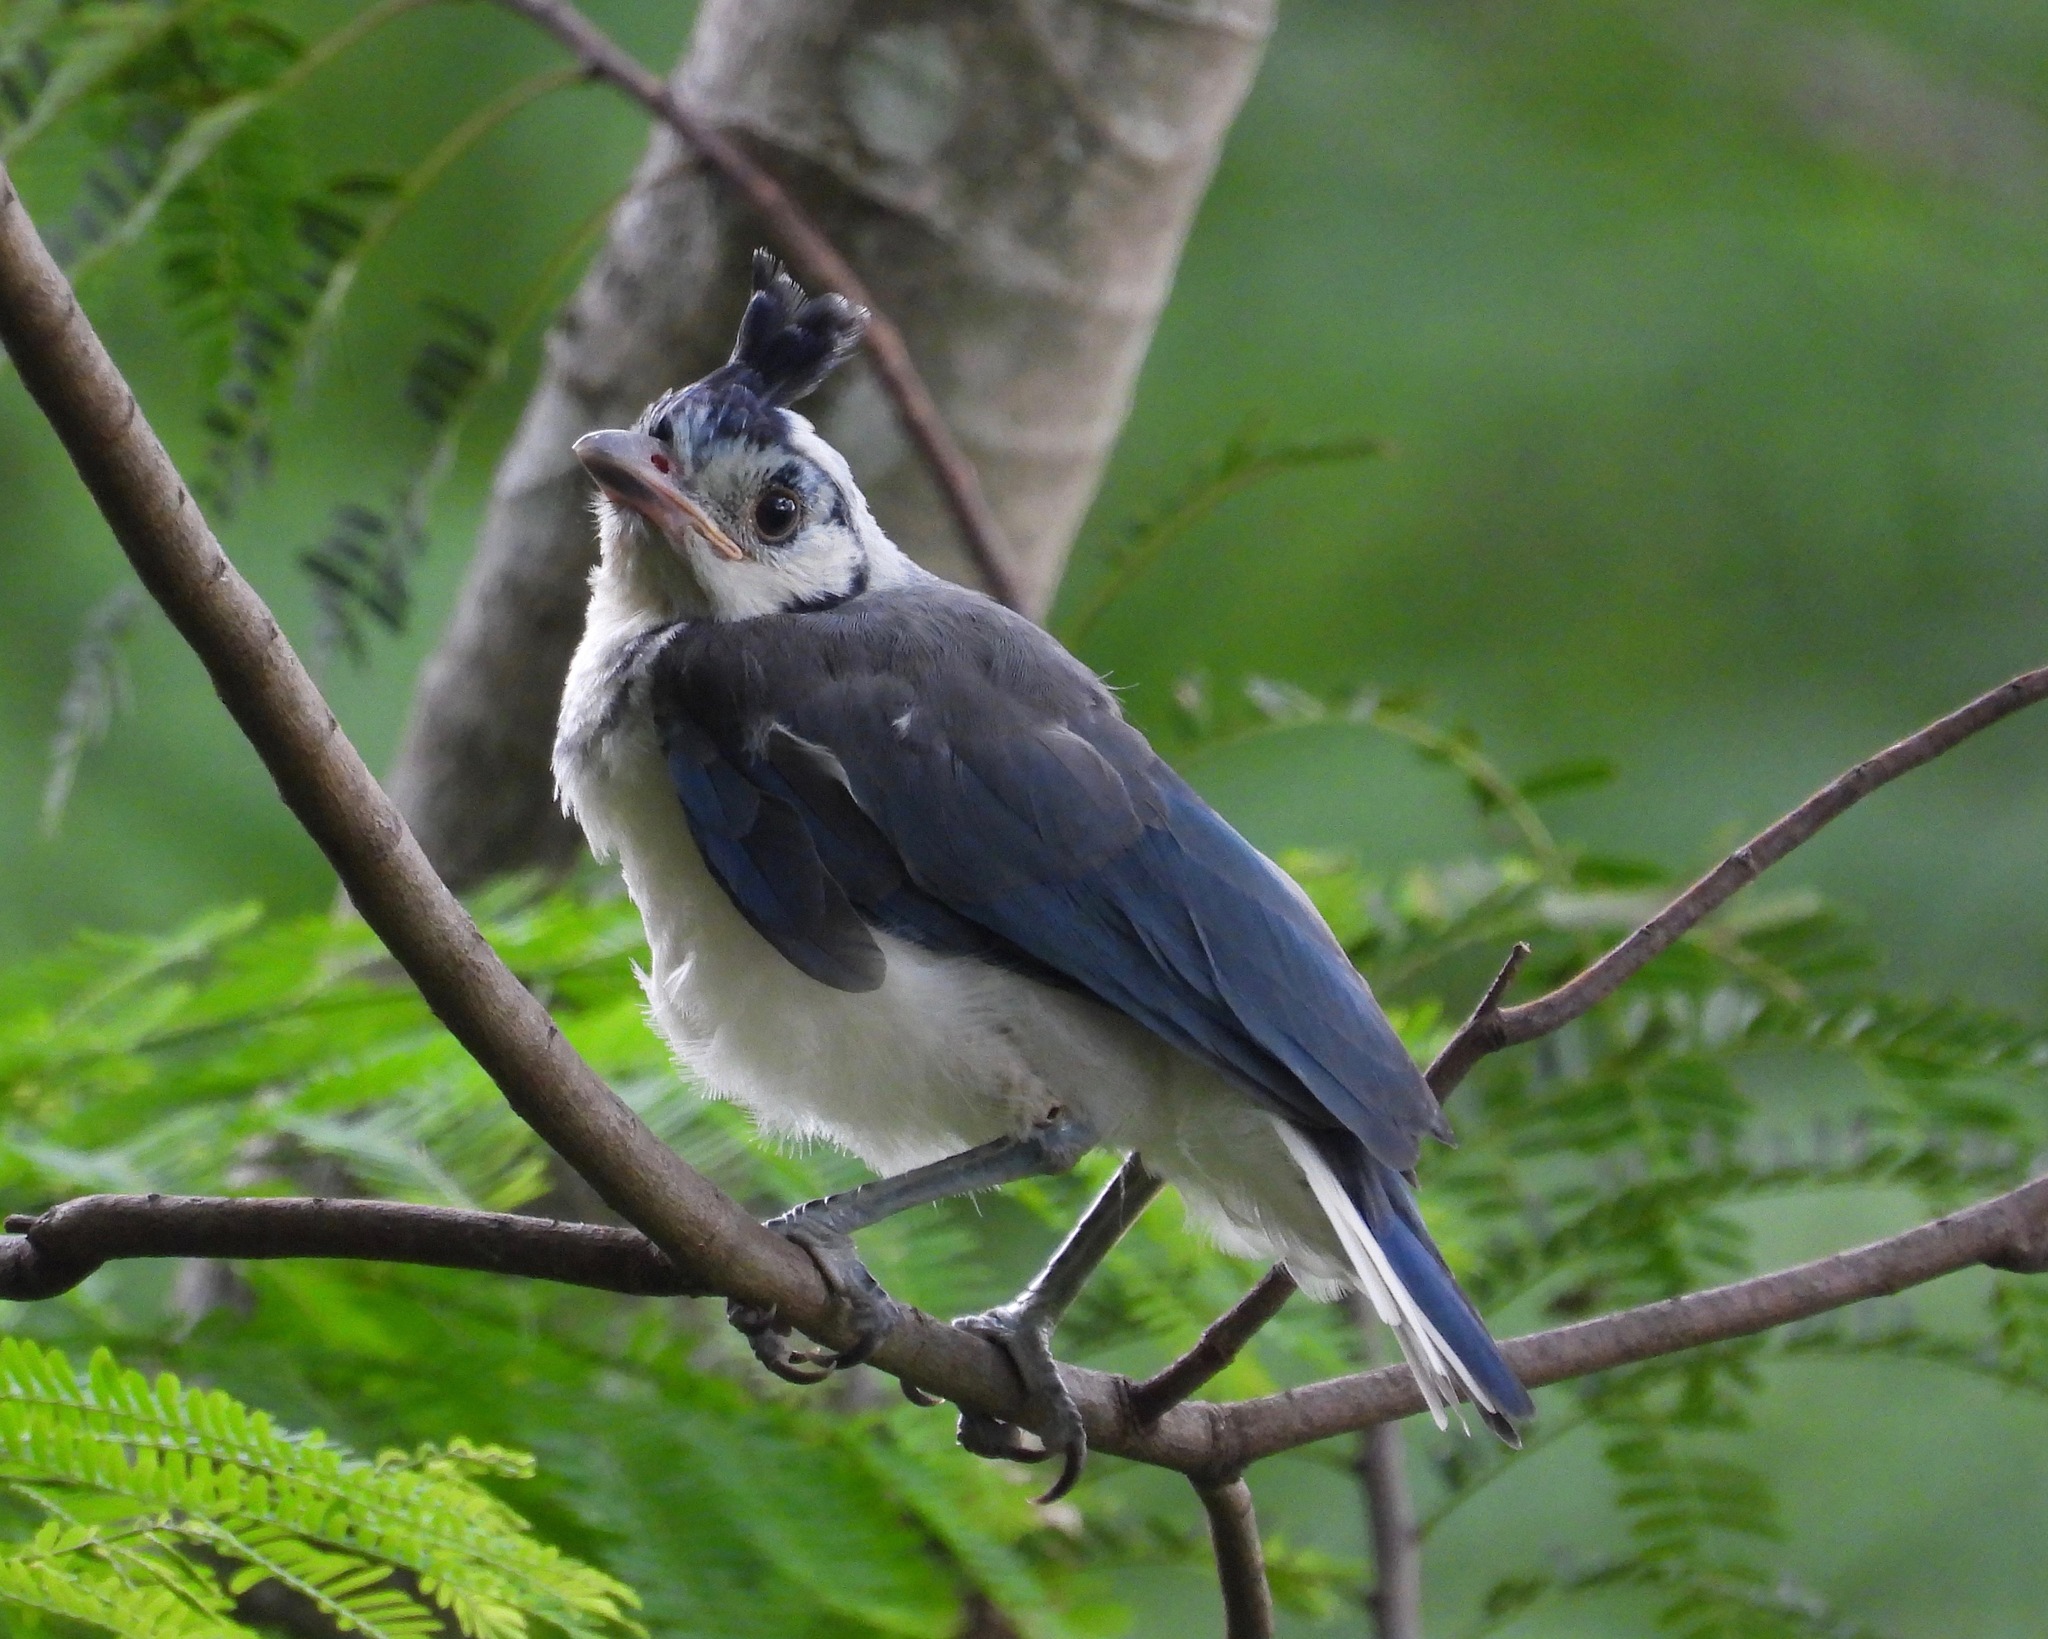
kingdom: Animalia
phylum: Chordata
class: Aves
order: Passeriformes
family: Corvidae
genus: Calocitta
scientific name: Calocitta formosa
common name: White-throated magpie-jay
